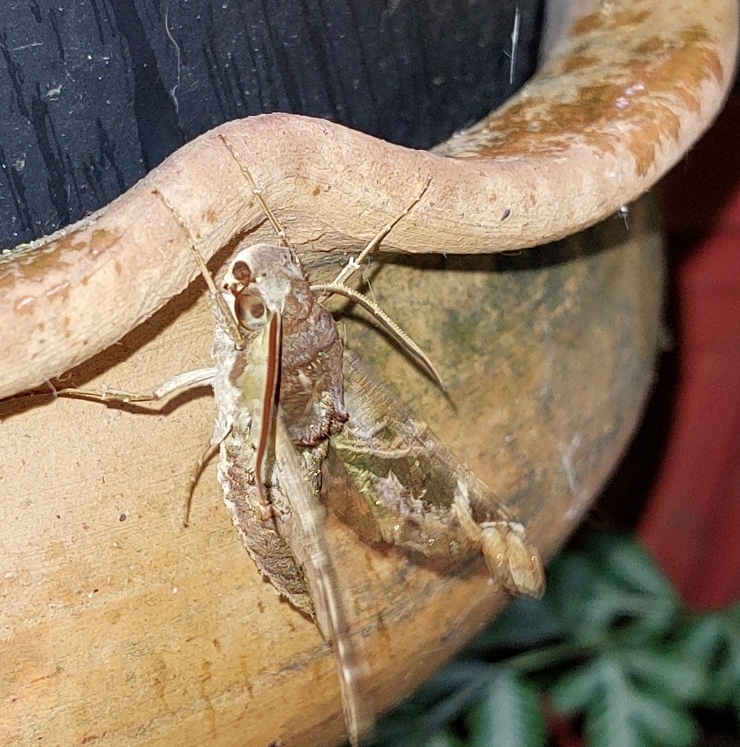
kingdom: Animalia
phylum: Arthropoda
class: Insecta
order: Lepidoptera
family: Sphingidae
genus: Unzela
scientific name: Unzela japix
